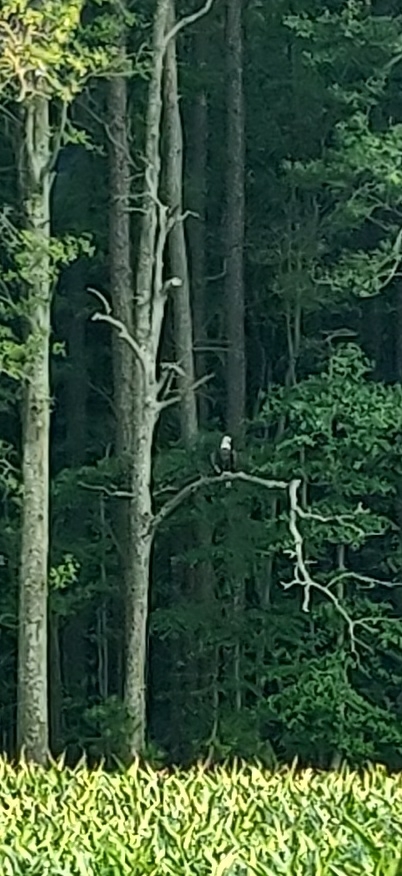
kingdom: Animalia
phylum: Chordata
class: Aves
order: Accipitriformes
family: Accipitridae
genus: Haliaeetus
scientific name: Haliaeetus leucocephalus
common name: Bald eagle
